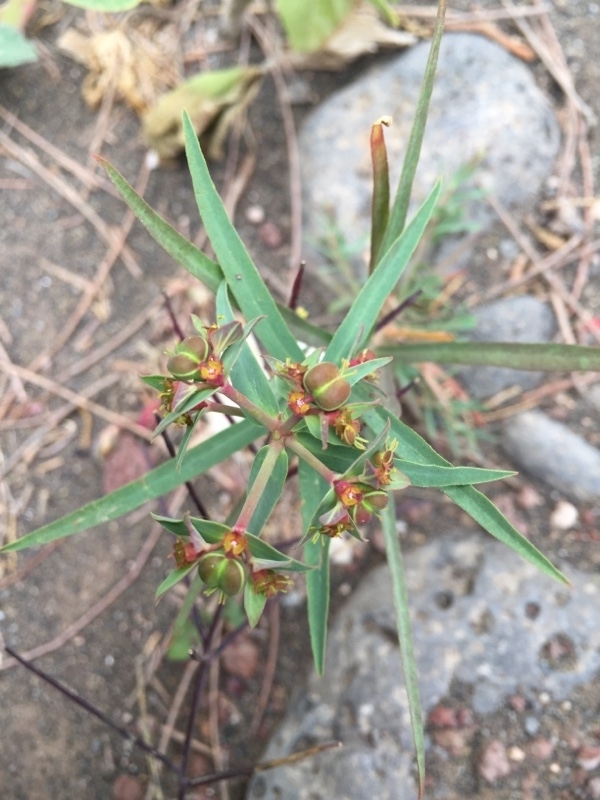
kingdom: Plantae
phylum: Tracheophyta
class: Magnoliopsida
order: Malpighiales
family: Euphorbiaceae
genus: Euphorbia
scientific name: Euphorbia terracina
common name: Geraldton carnation weed
